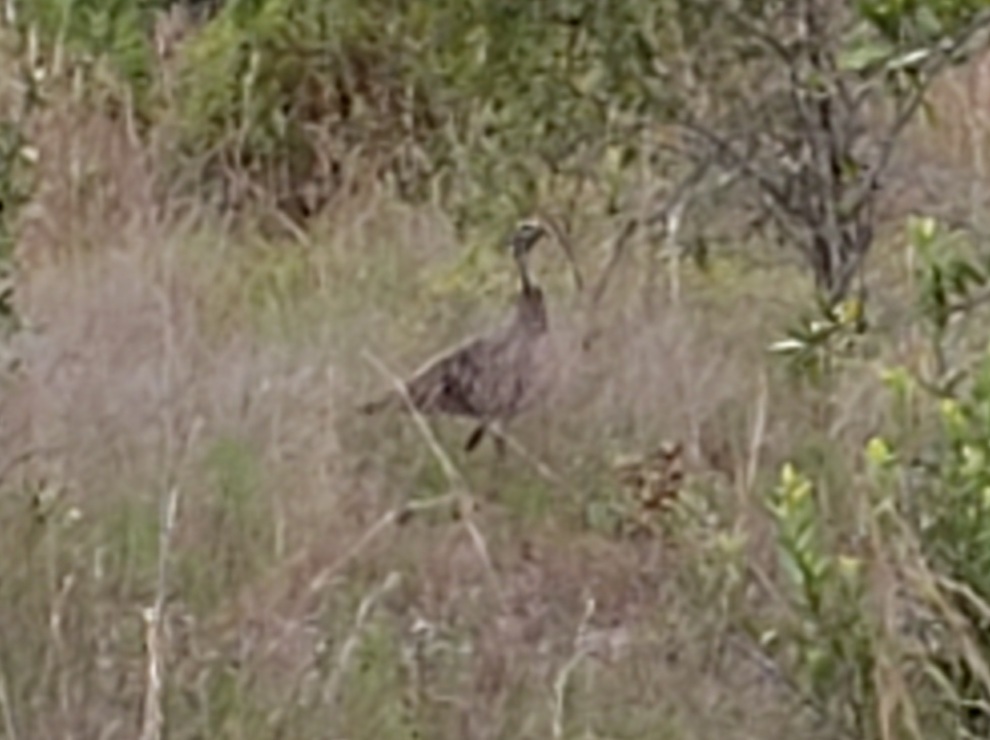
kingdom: Animalia
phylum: Chordata
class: Aves
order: Galliformes
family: Phasianidae
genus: Meleagris
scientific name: Meleagris gallopavo
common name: Wild turkey
